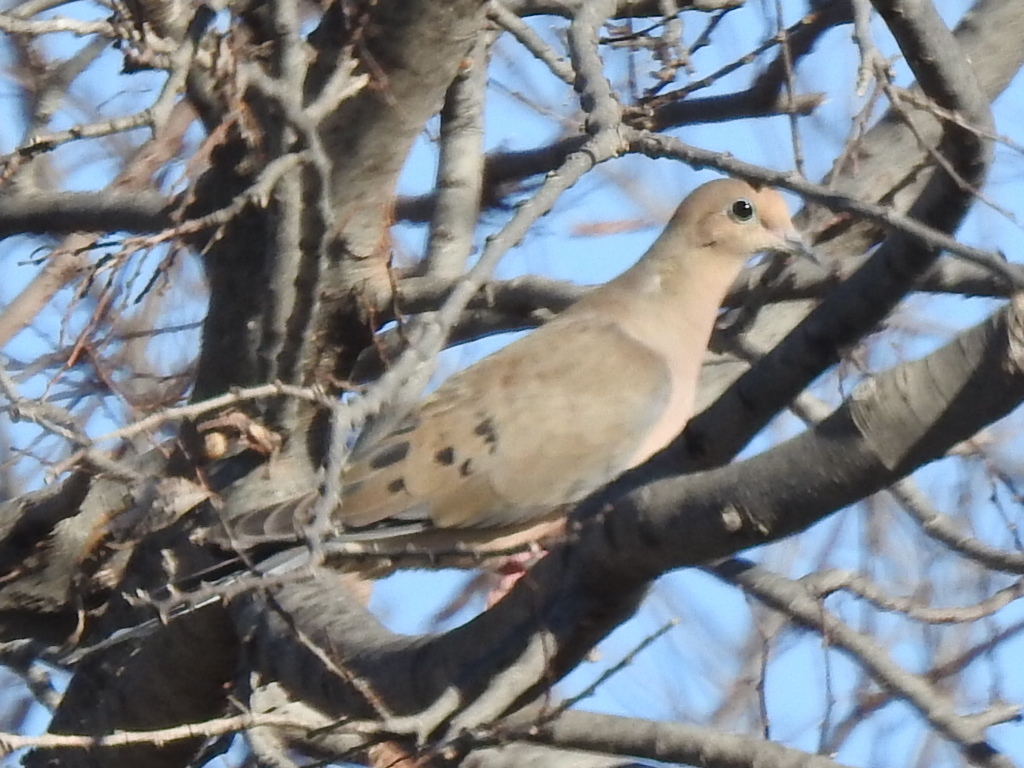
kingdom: Animalia
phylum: Chordata
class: Aves
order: Columbiformes
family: Columbidae
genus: Zenaida
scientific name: Zenaida macroura
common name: Mourning dove
